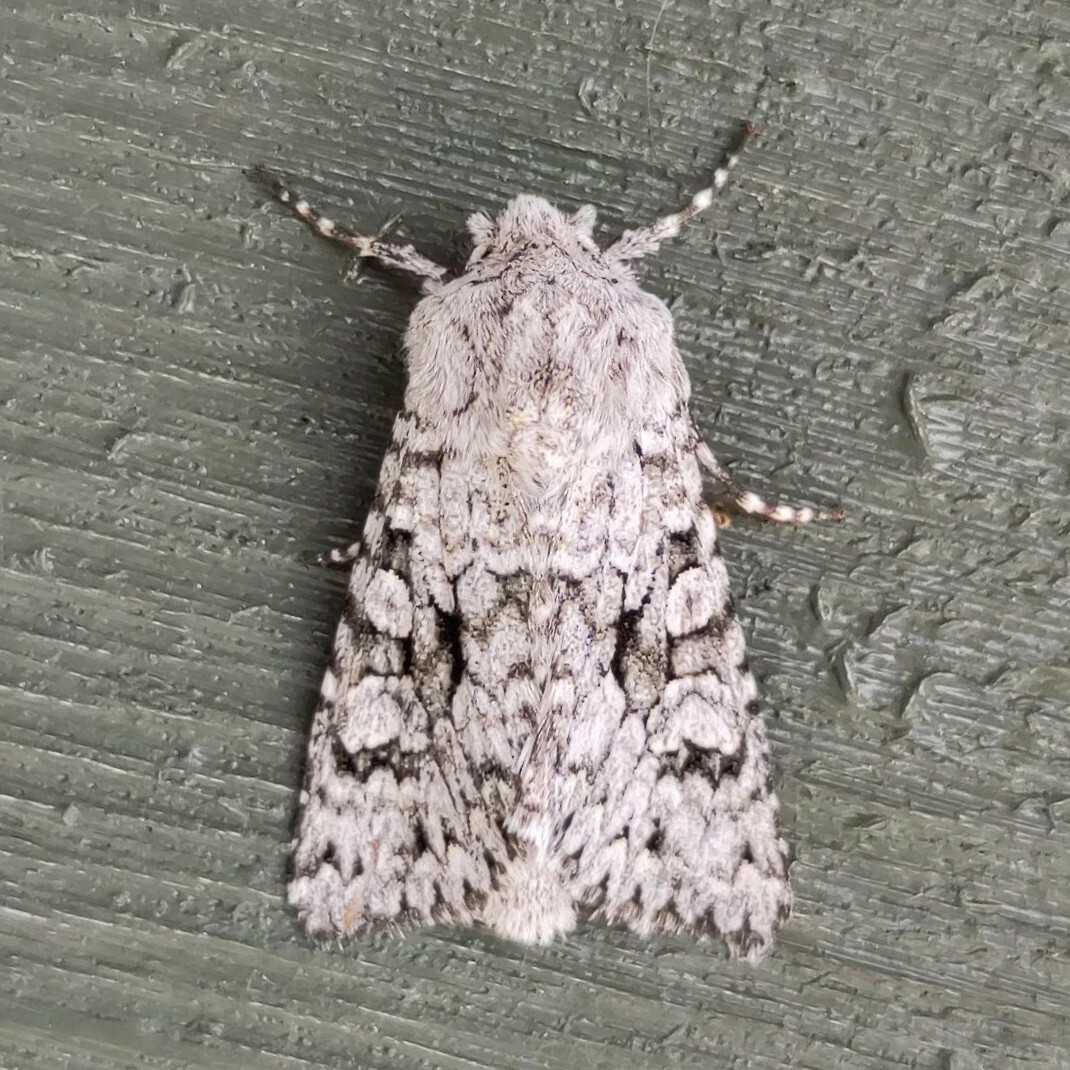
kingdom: Animalia
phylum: Arthropoda
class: Insecta
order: Lepidoptera
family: Noctuidae
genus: Antitype
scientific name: Antitype chi
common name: Grey chi
